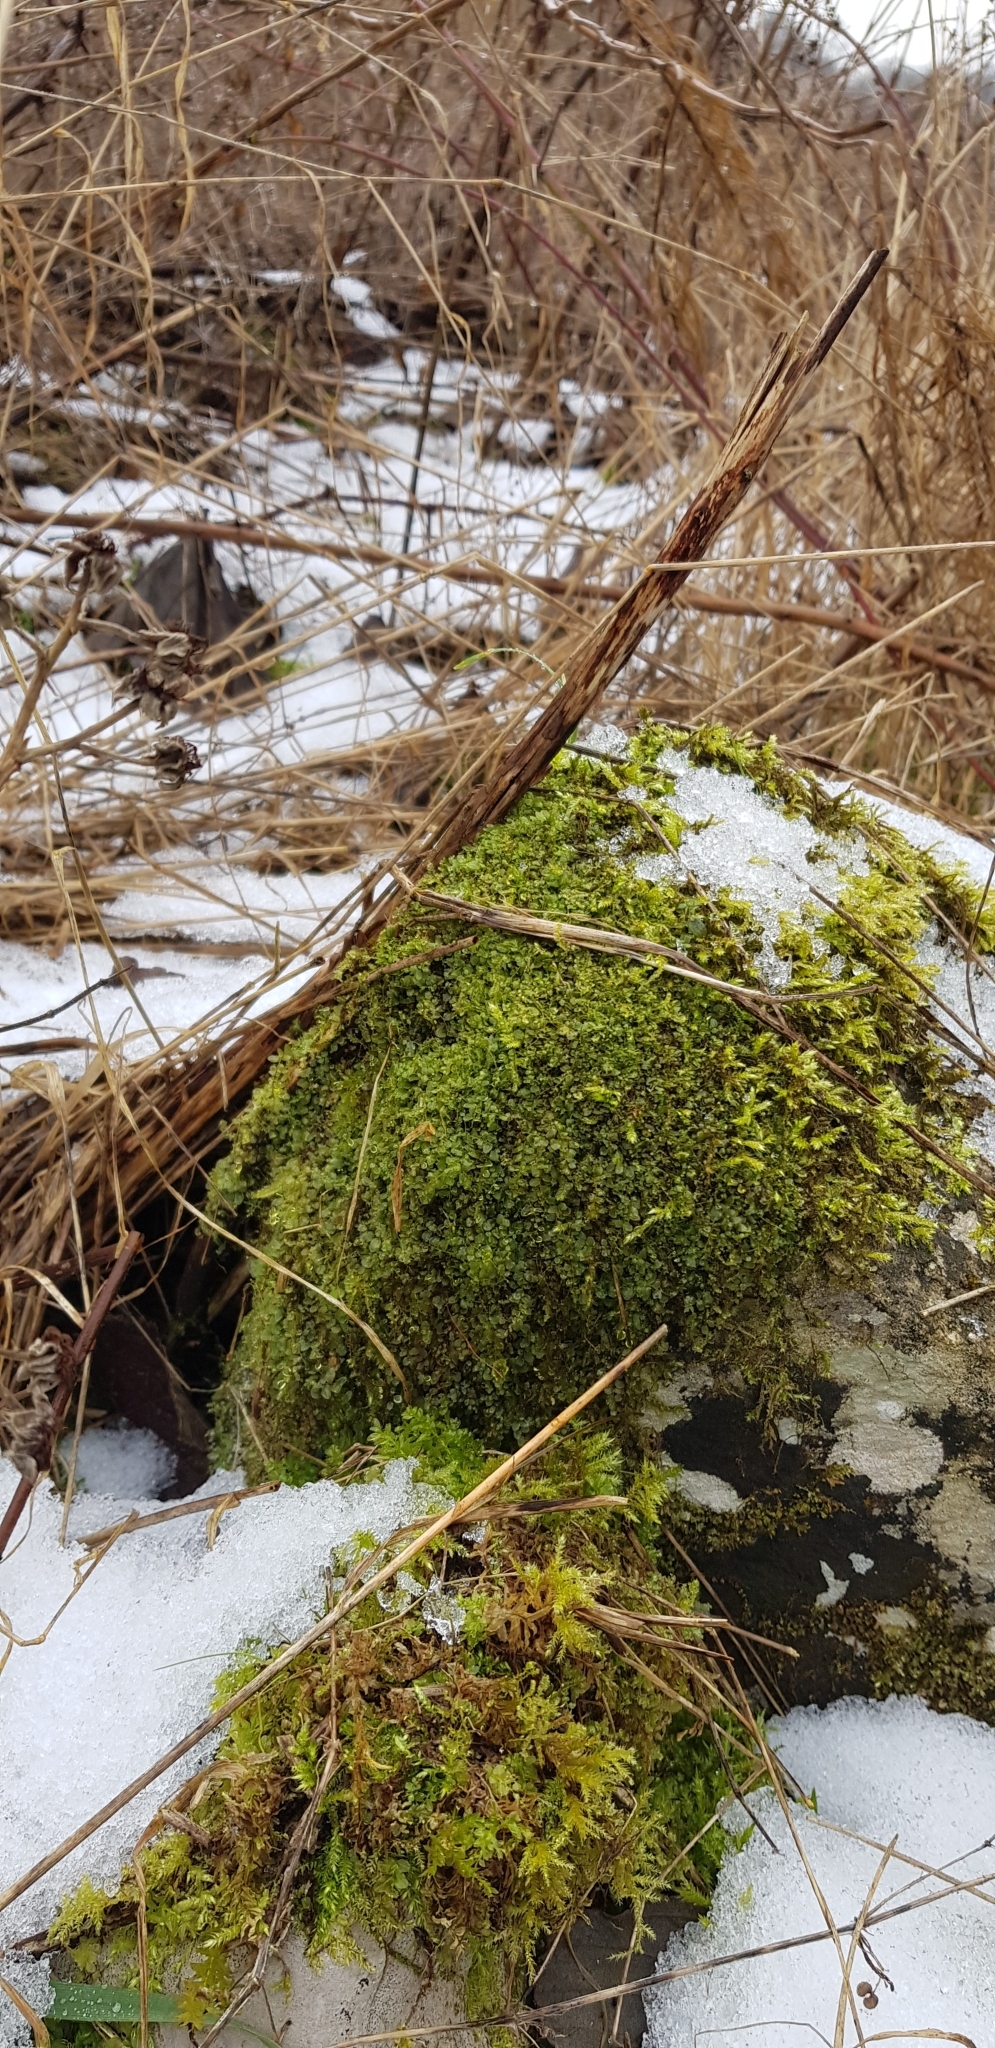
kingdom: Plantae
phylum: Bryophyta
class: Bryopsida
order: Bryales
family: Mniaceae
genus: Plagiomnium
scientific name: Plagiomnium rostratum
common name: Long-beaked leafy moss
